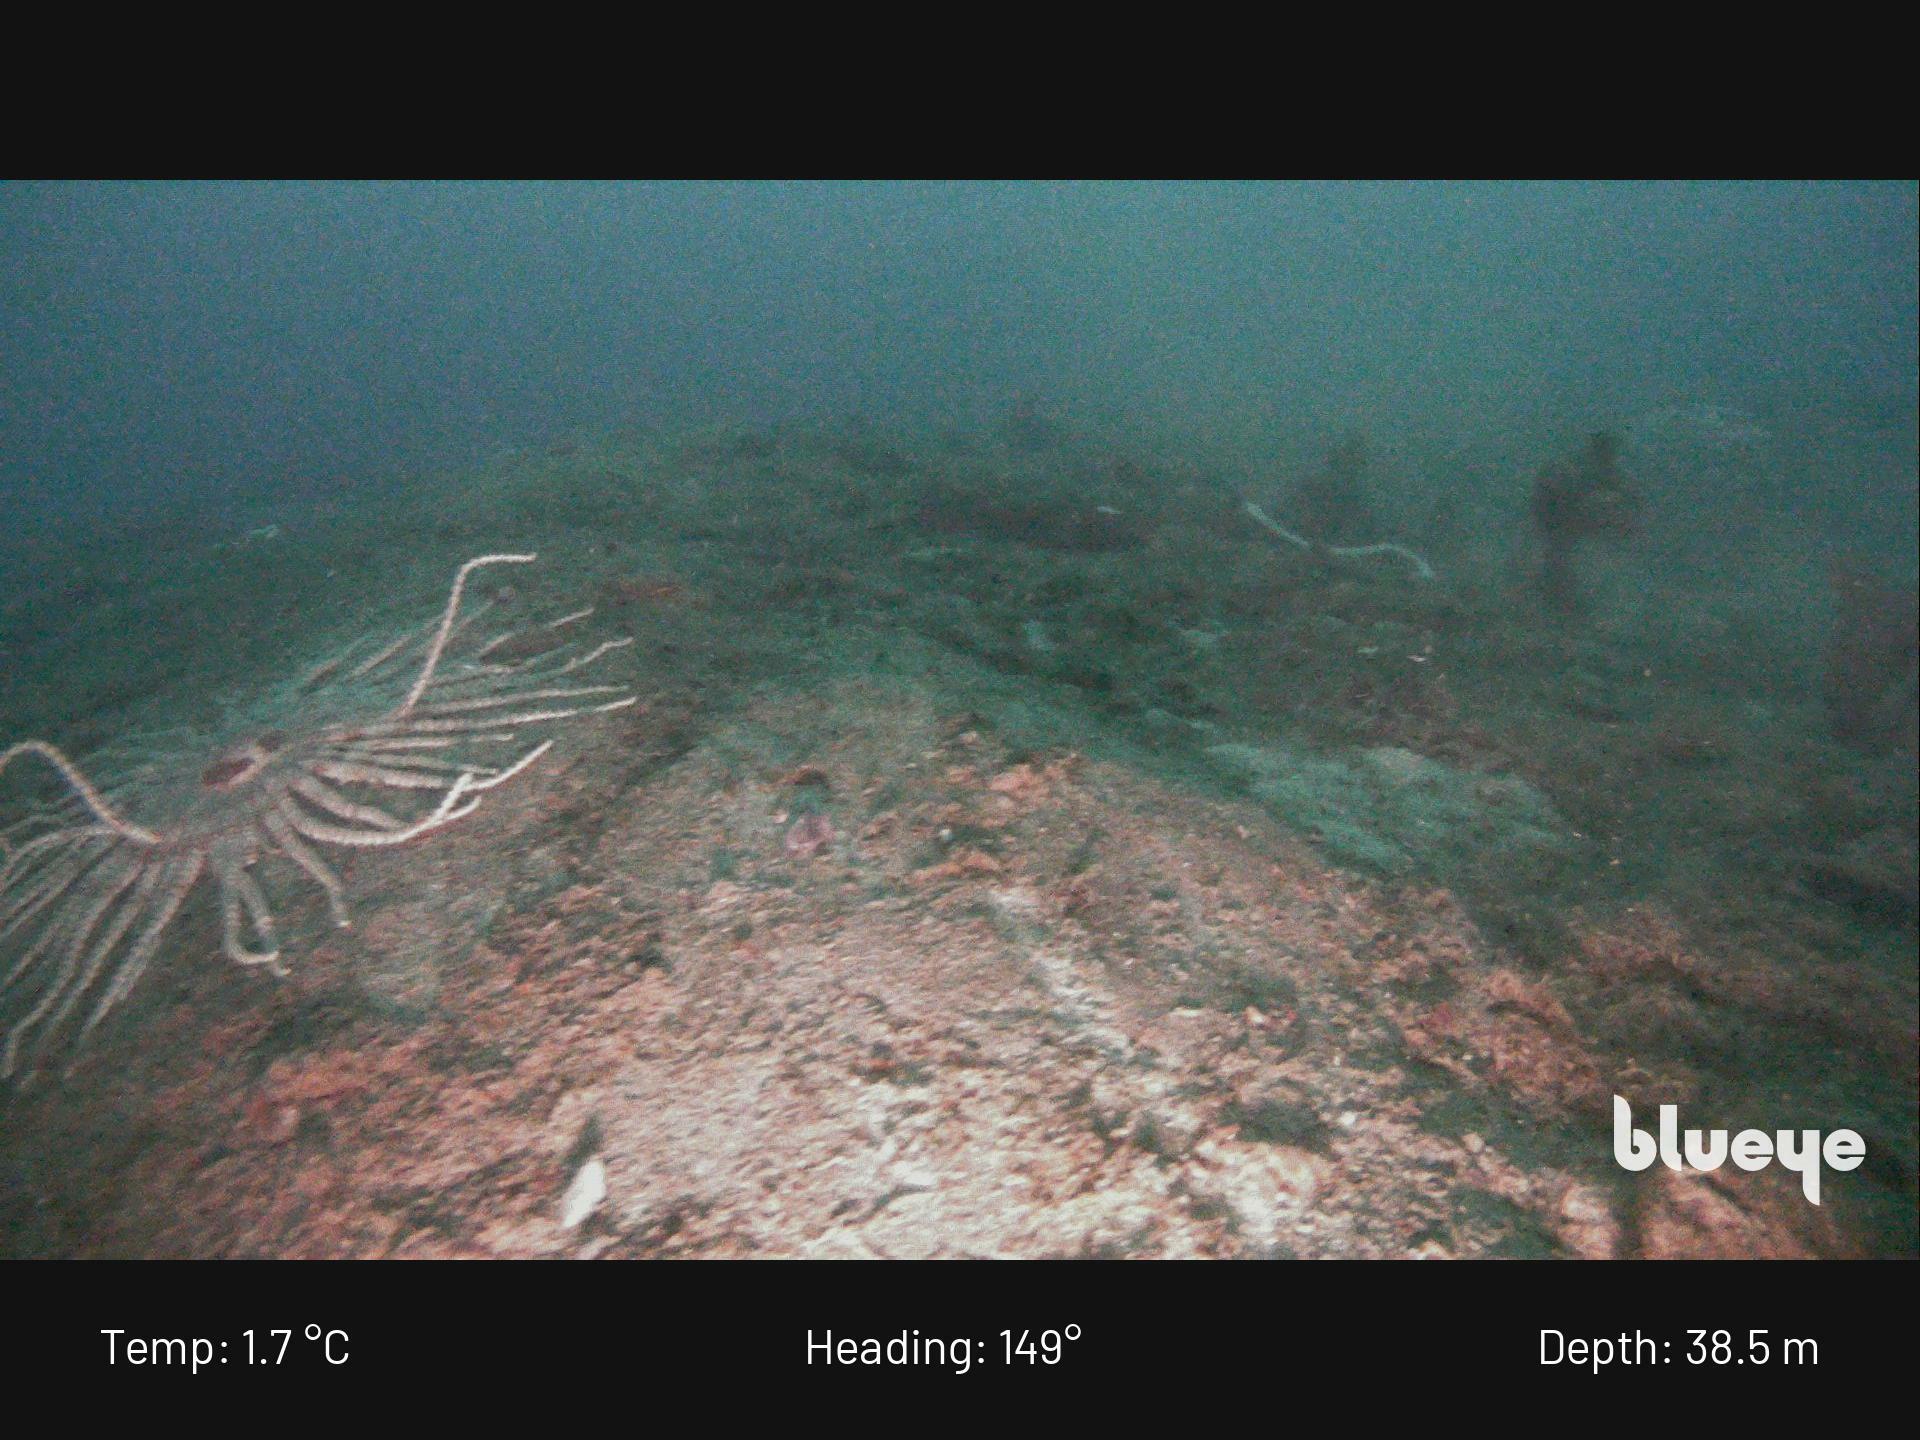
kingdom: Animalia
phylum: Echinodermata
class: Asteroidea
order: Forcipulatida
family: Heliasteridae
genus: Labidiaster
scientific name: Labidiaster annulatus
